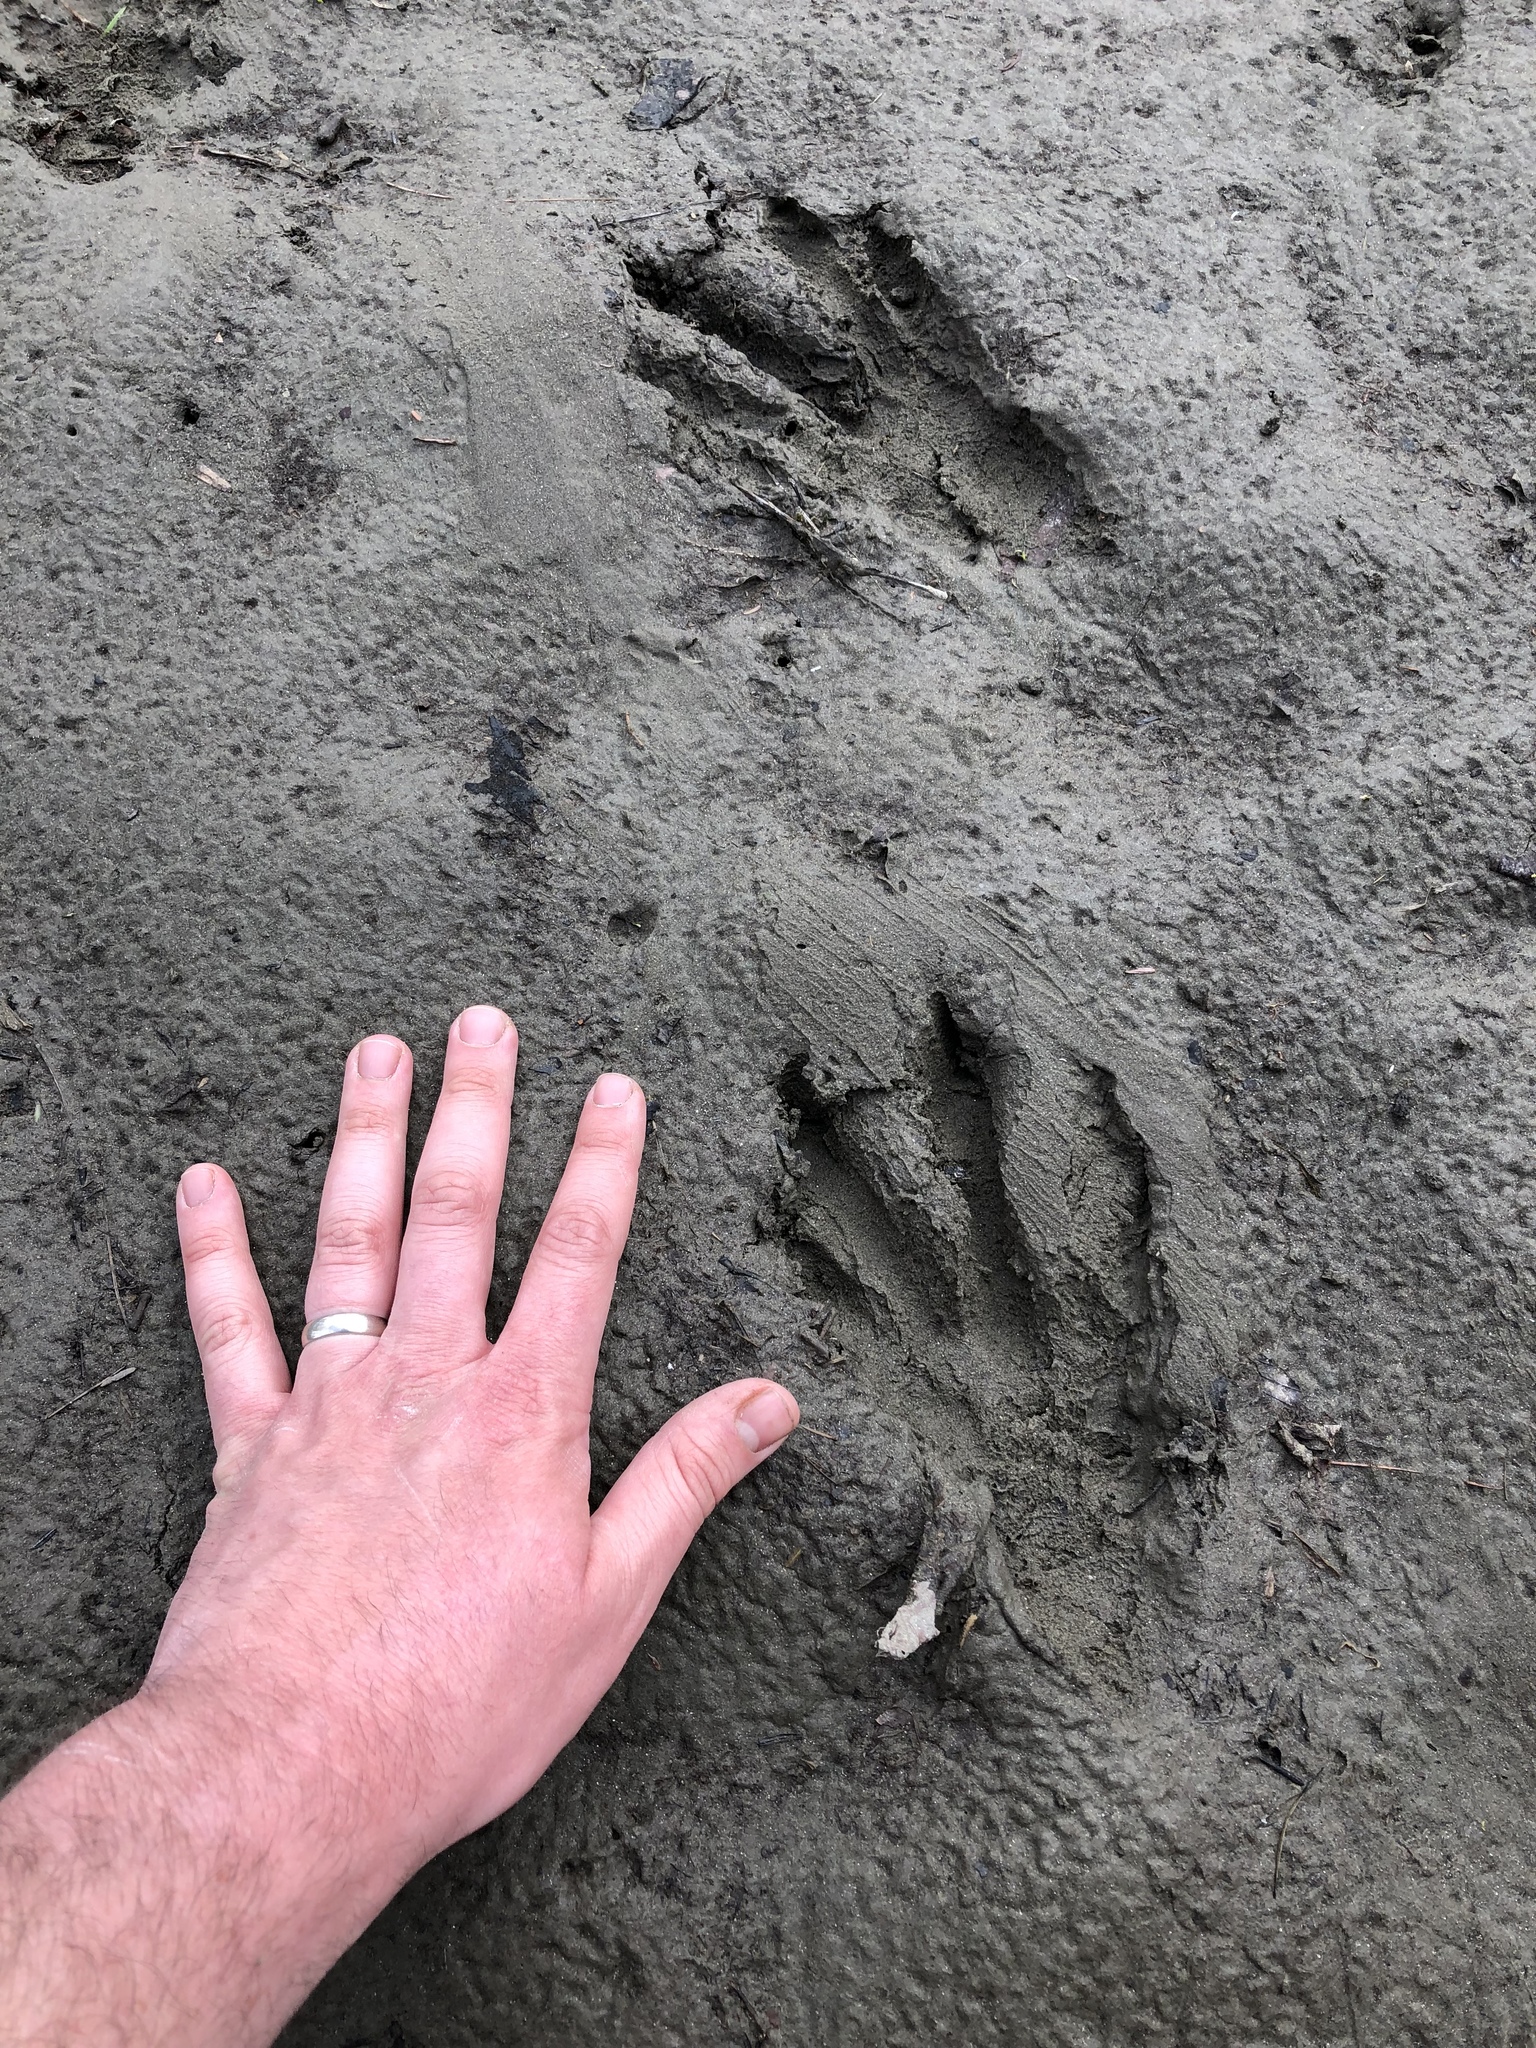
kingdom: Animalia
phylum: Chordata
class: Mammalia
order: Rodentia
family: Castoridae
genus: Castor
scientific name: Castor canadensis
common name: American beaver
